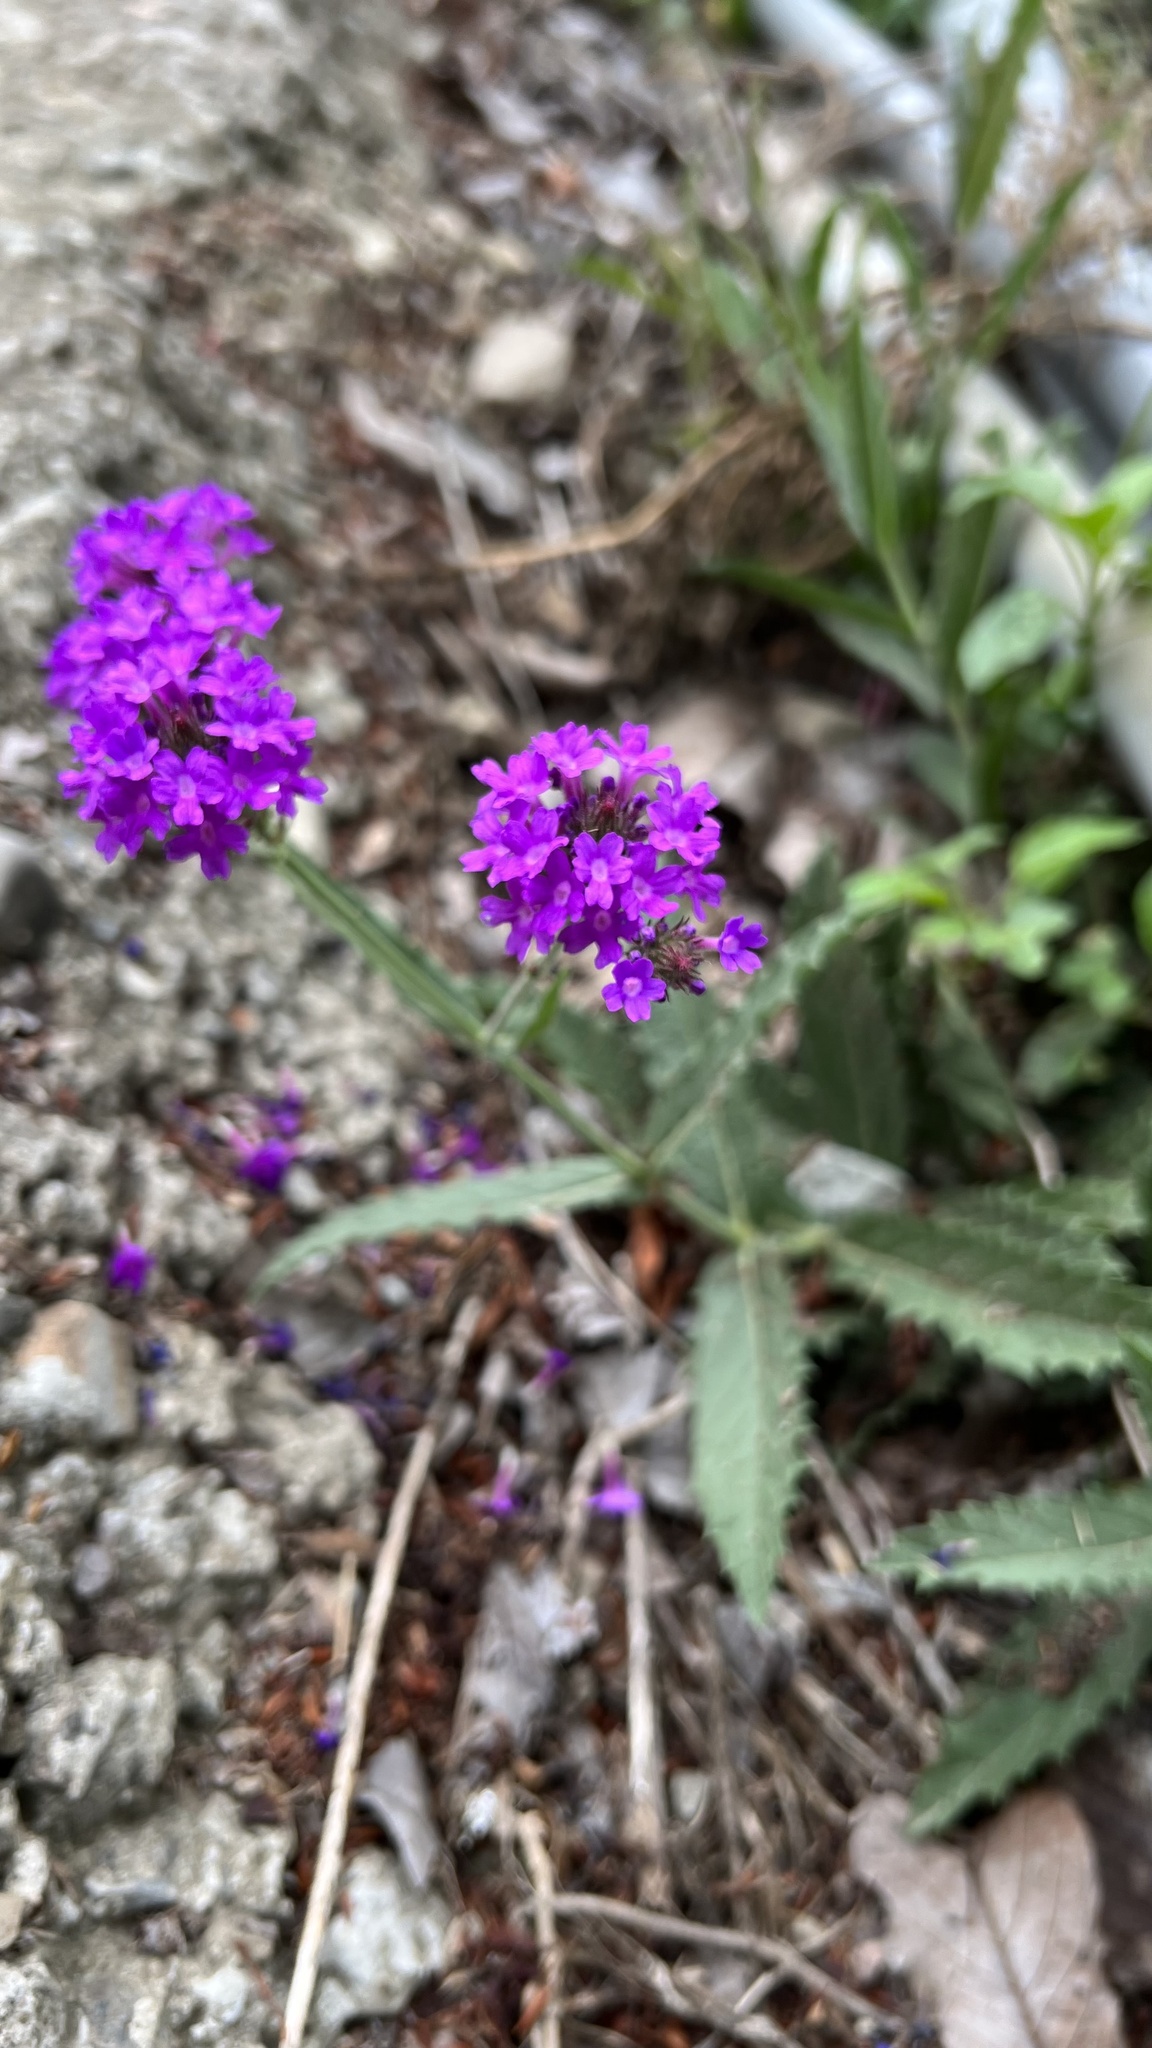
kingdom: Plantae
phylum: Tracheophyta
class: Magnoliopsida
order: Lamiales
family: Verbenaceae
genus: Verbena
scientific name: Verbena bonariensis
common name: Purpletop vervain
